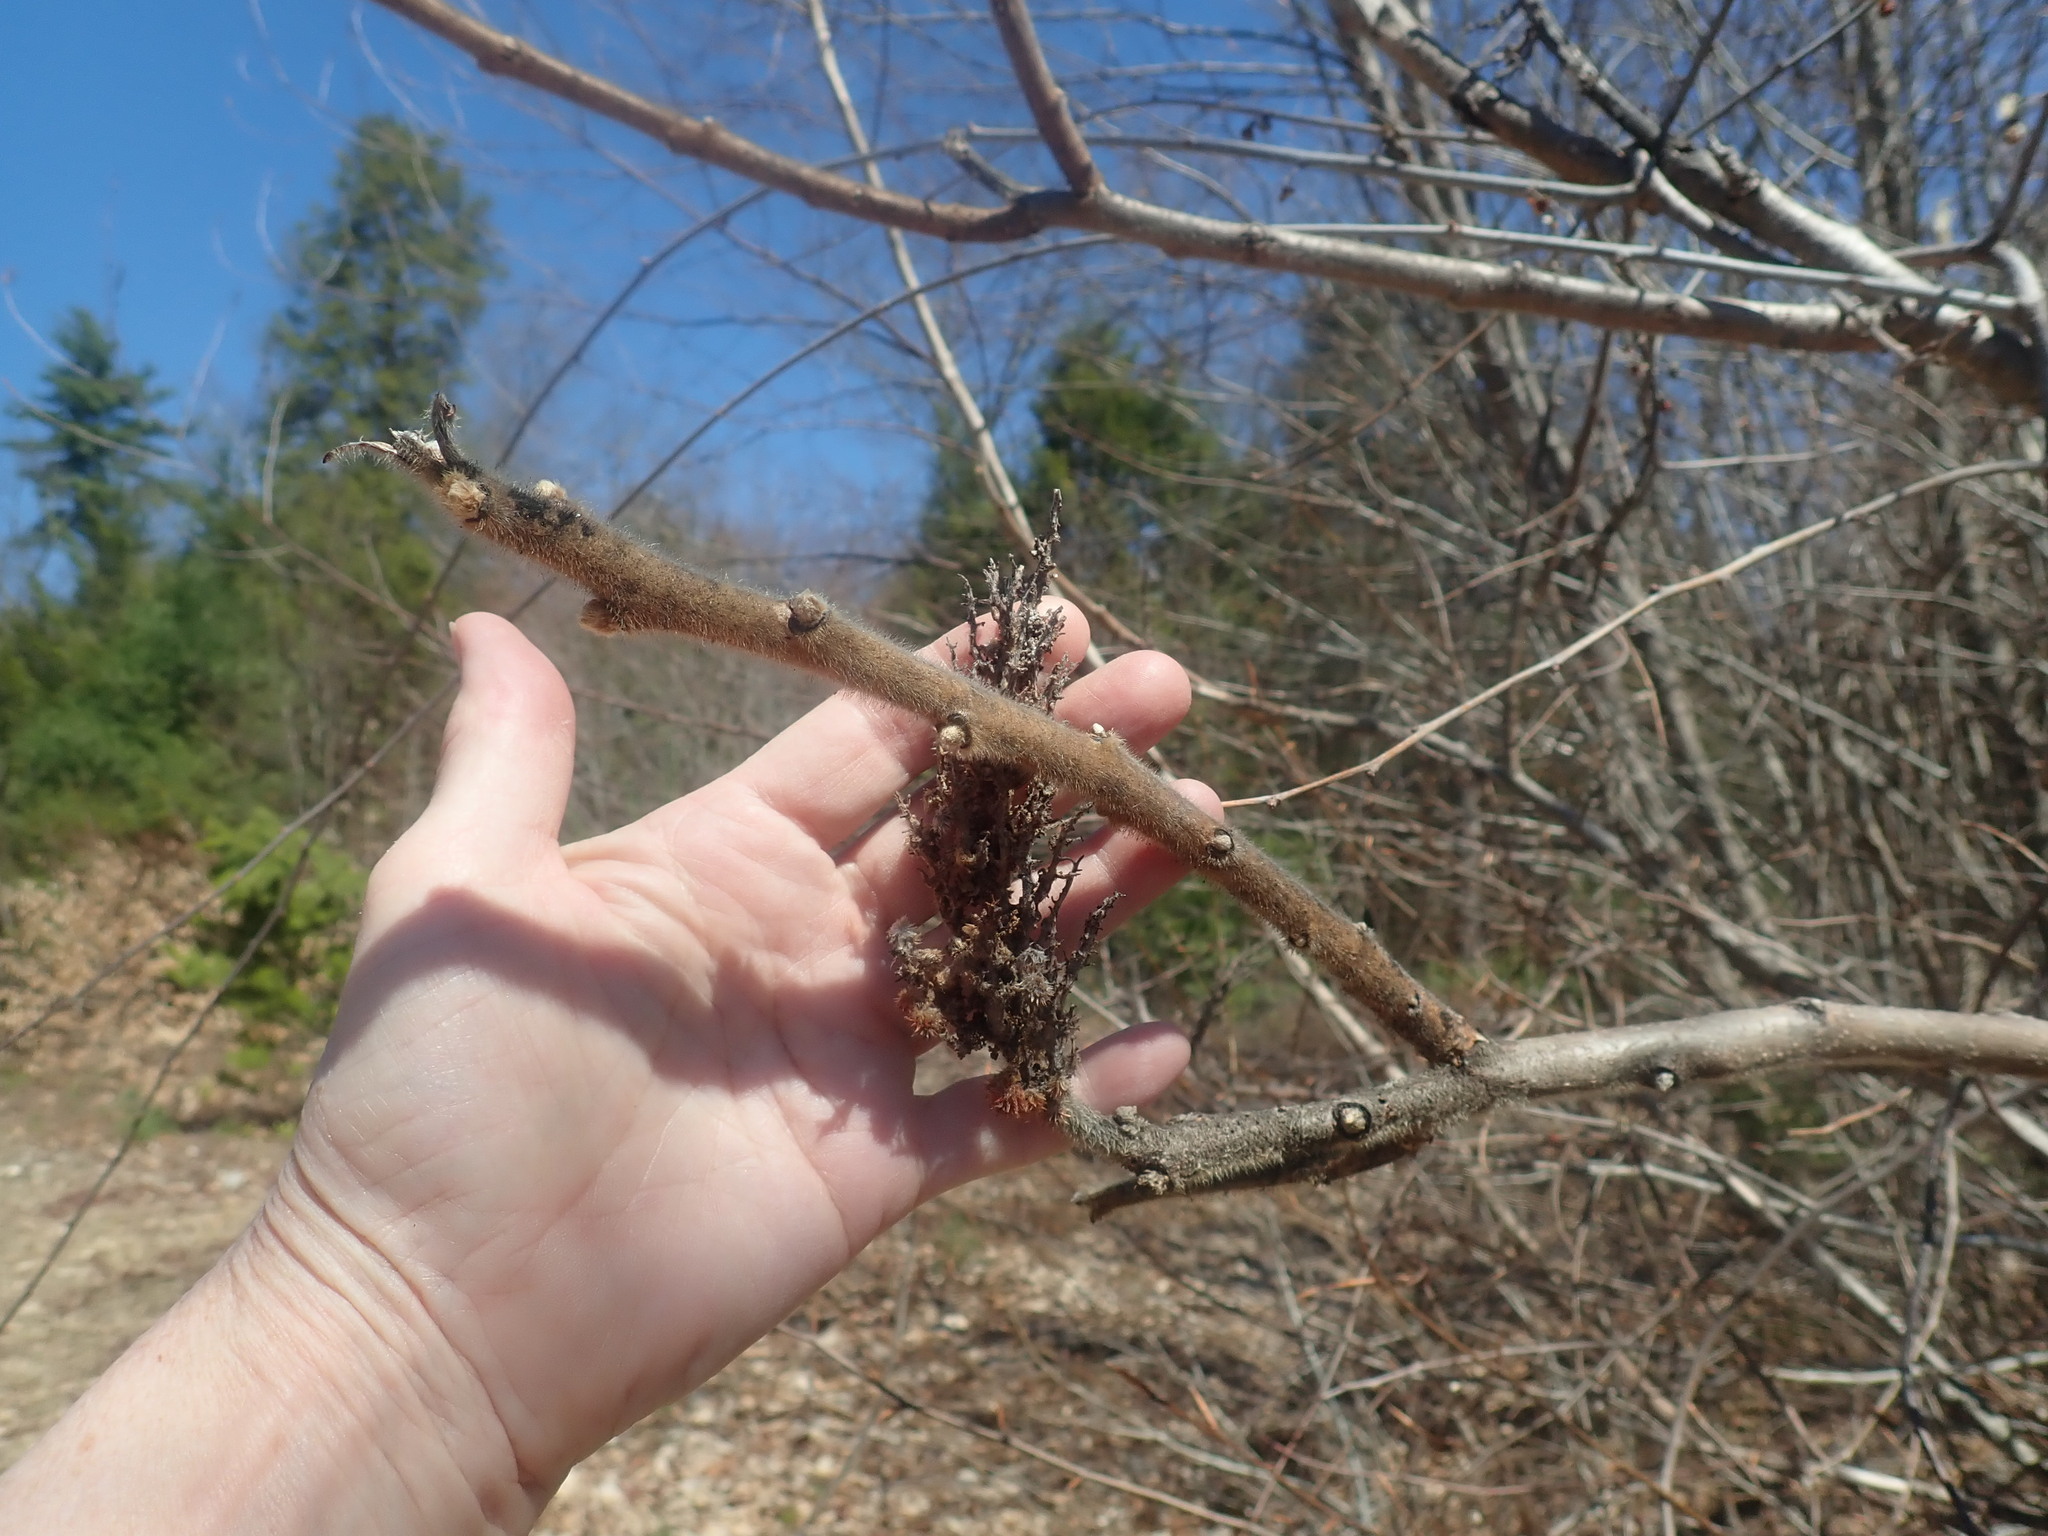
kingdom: Plantae
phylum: Tracheophyta
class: Magnoliopsida
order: Sapindales
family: Anacardiaceae
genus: Rhus
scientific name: Rhus typhina
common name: Staghorn sumac
